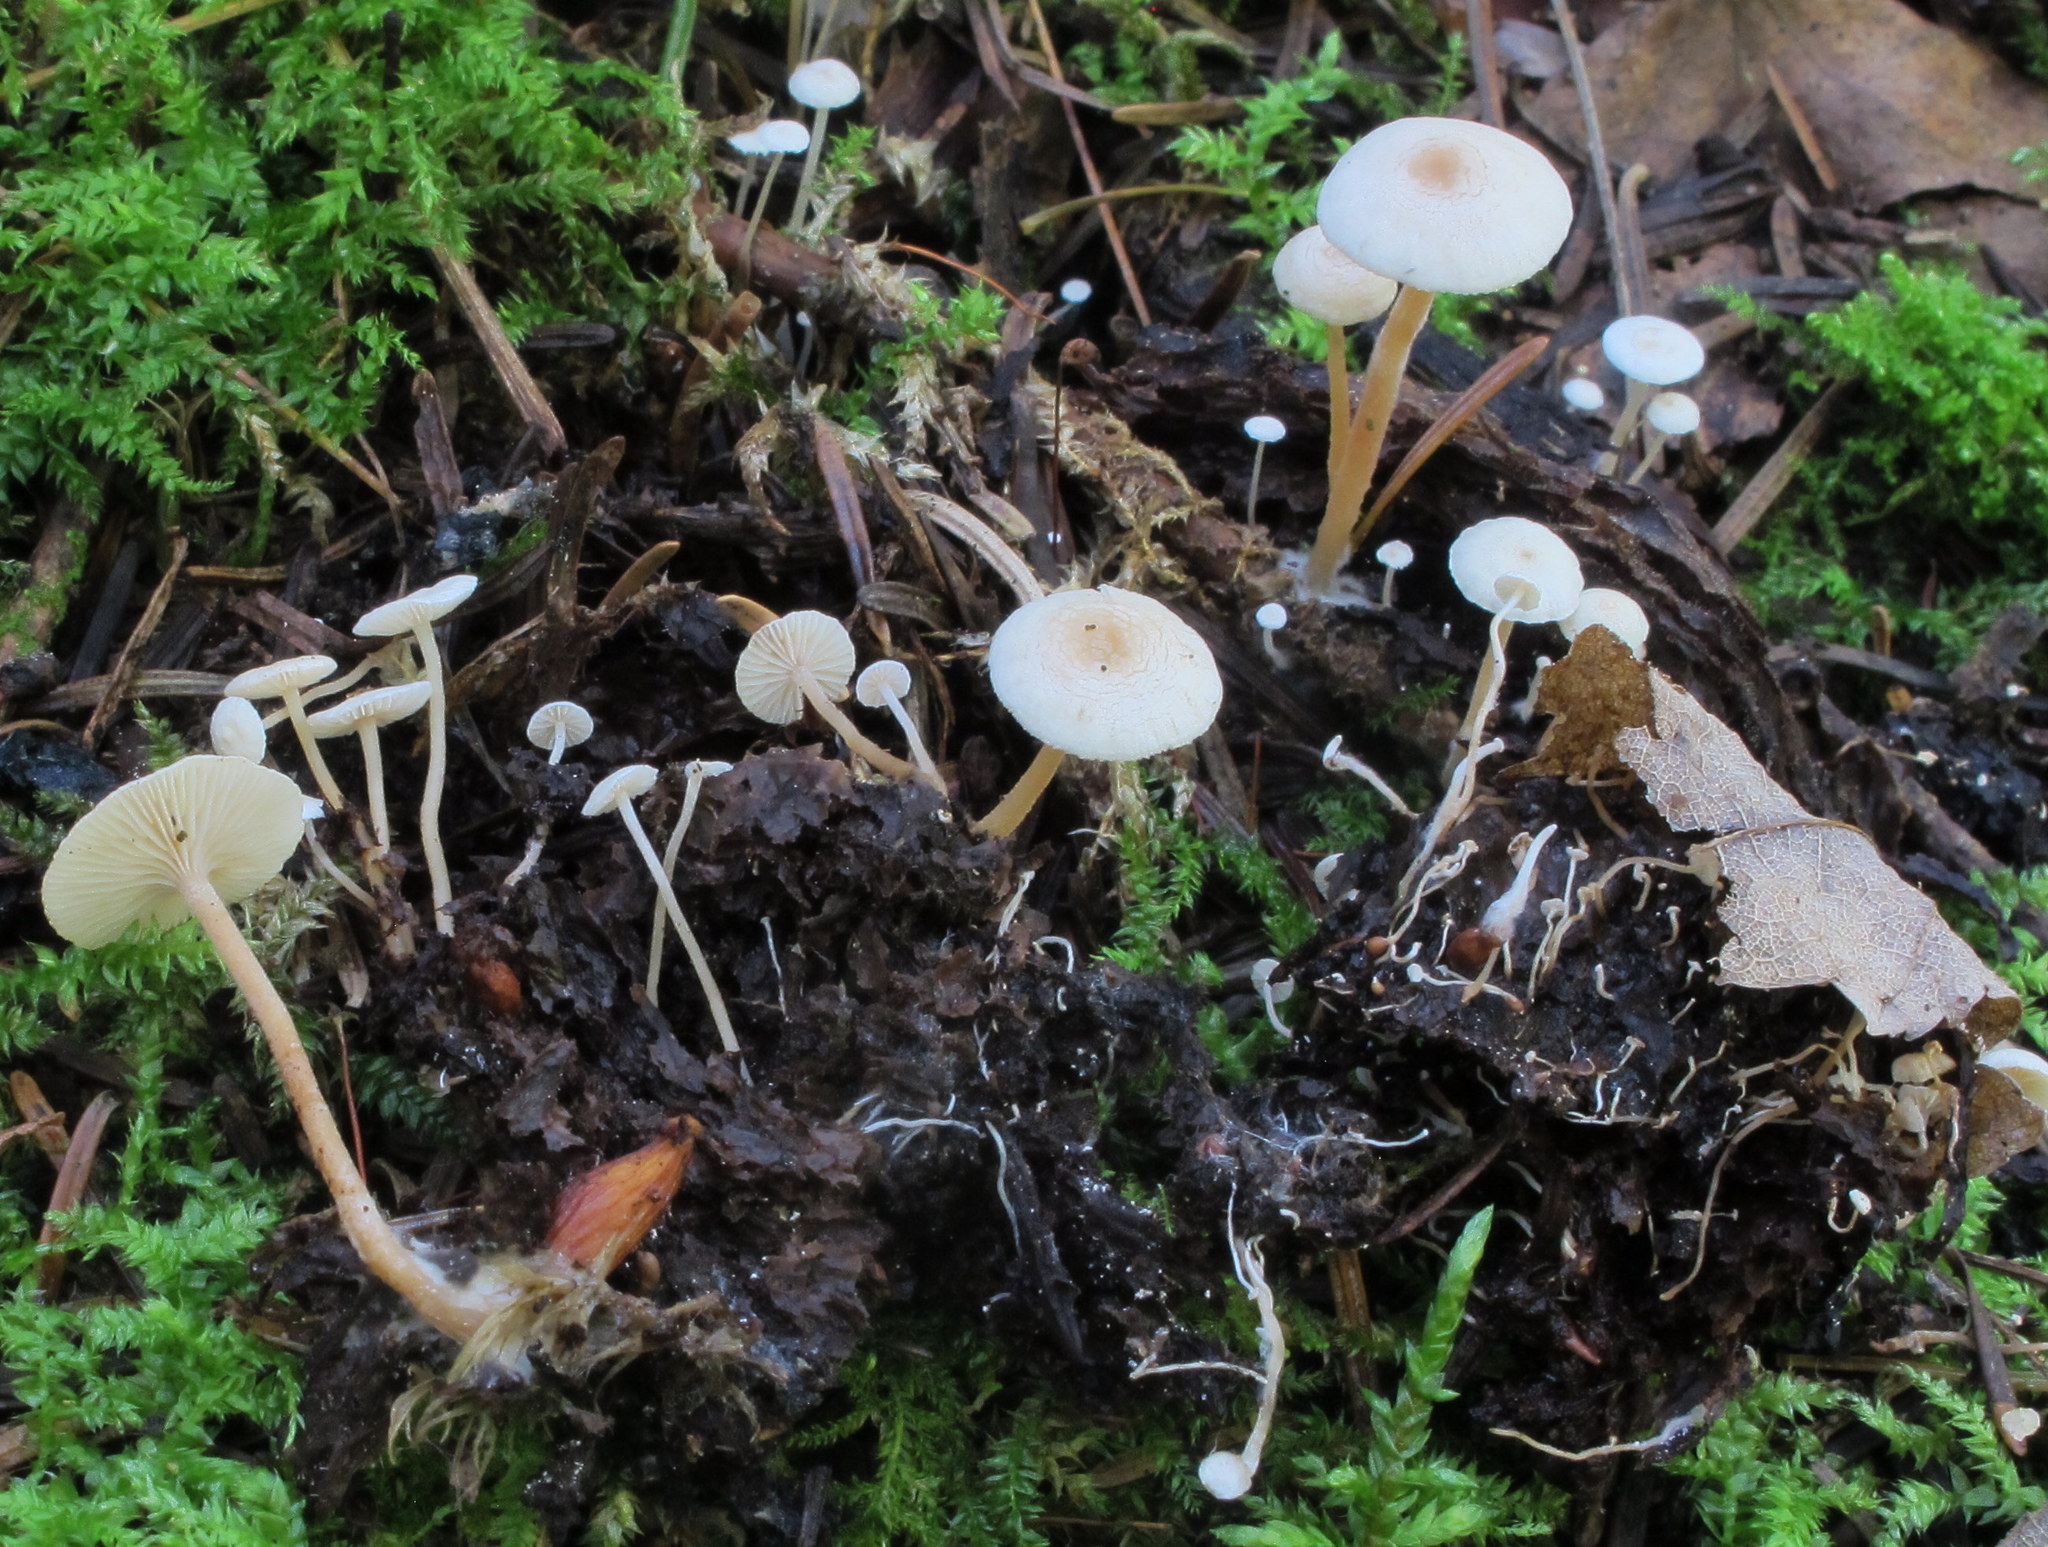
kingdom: Fungi
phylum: Basidiomycota
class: Agaricomycetes
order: Agaricales
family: Tricholomataceae
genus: Collybia
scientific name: Collybia tuberosa
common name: Lentil shanklet
